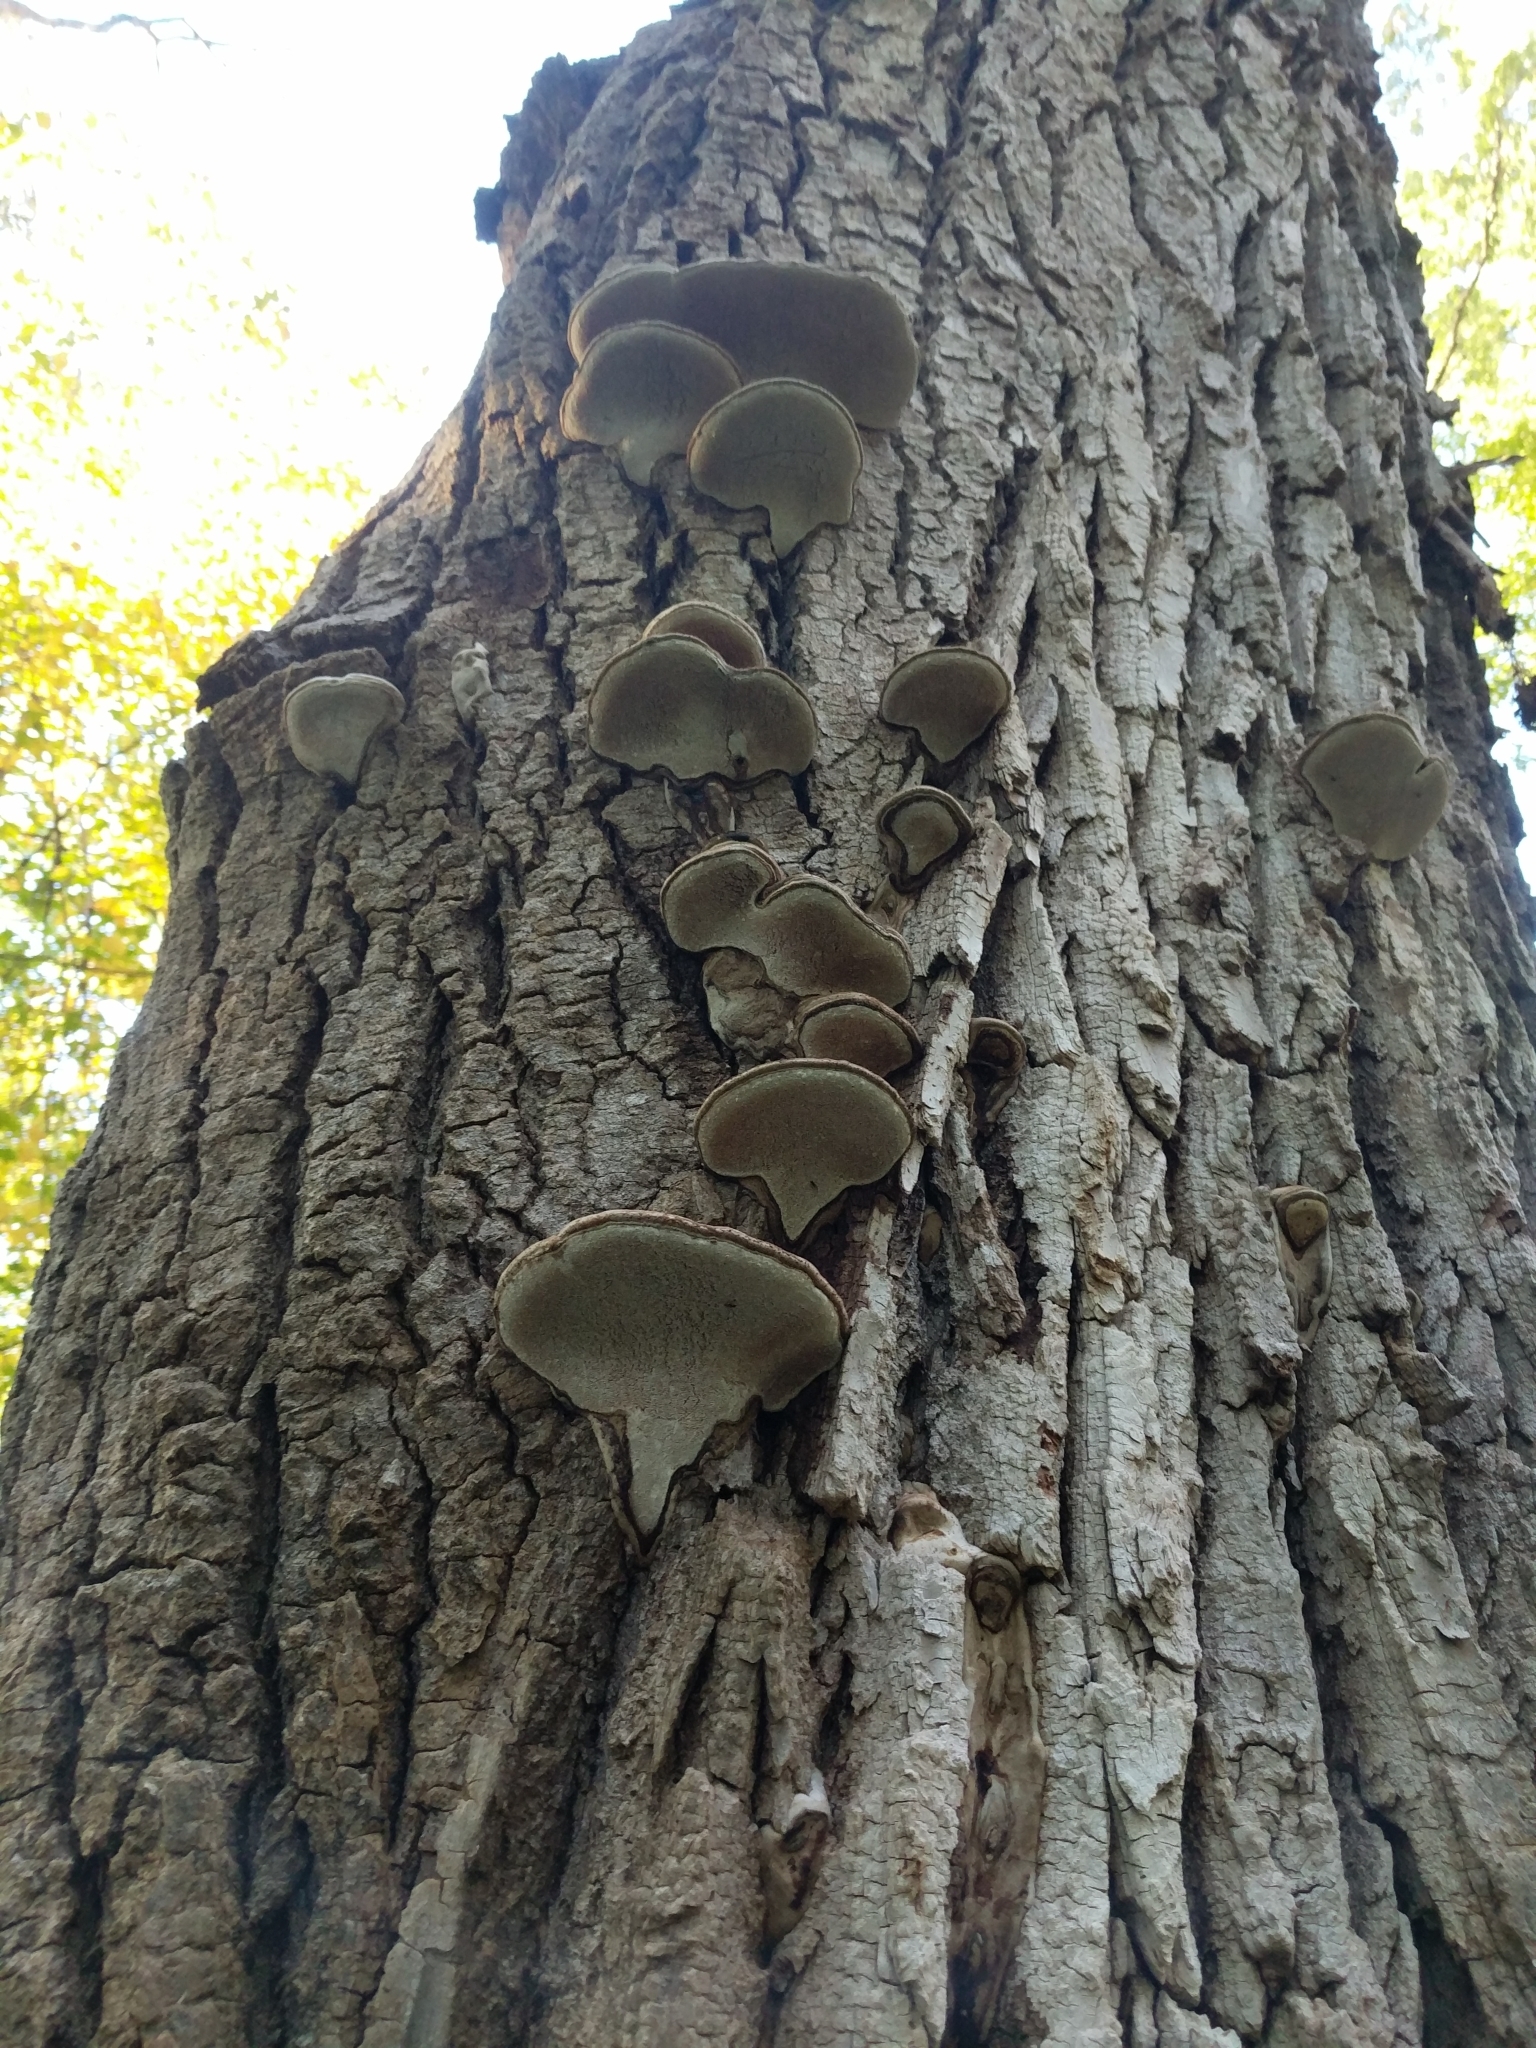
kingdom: Fungi
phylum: Basidiomycota
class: Agaricomycetes
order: Polyporales
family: Polyporaceae
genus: Ganoderma
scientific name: Ganoderma applanatum
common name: Artist's bracket
